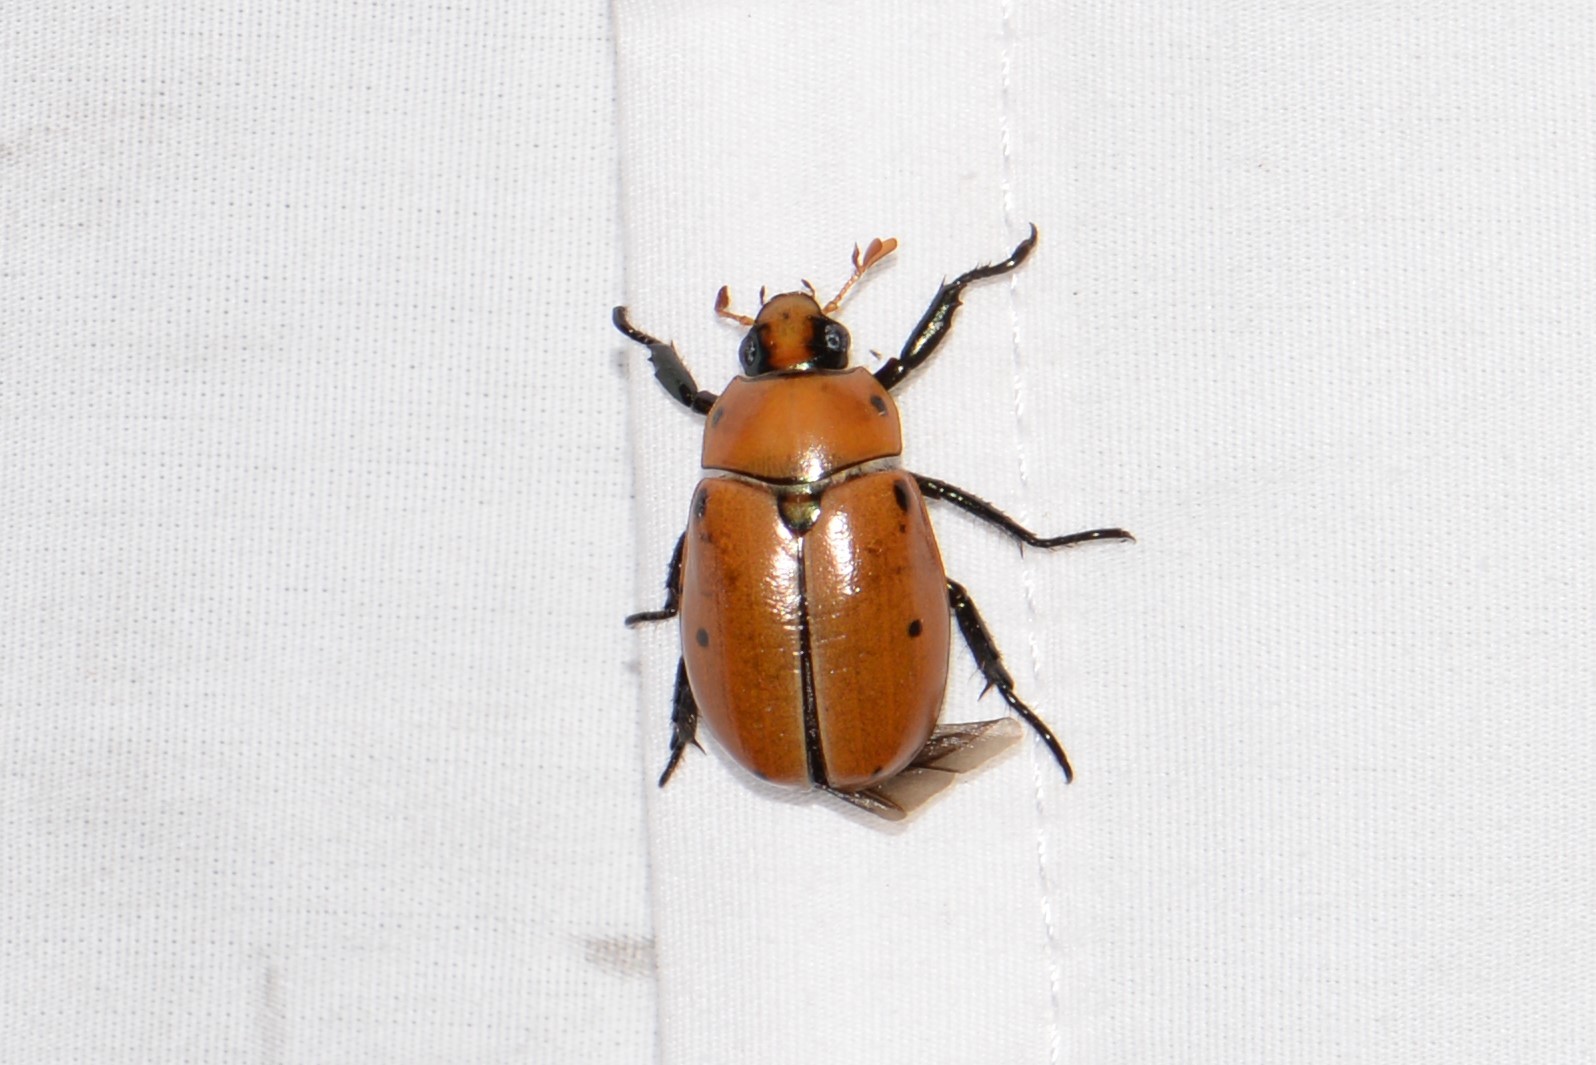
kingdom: Animalia
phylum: Arthropoda
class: Insecta
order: Coleoptera
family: Scarabaeidae
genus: Pelidnota
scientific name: Pelidnota punctata
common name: Grapevine beetle
